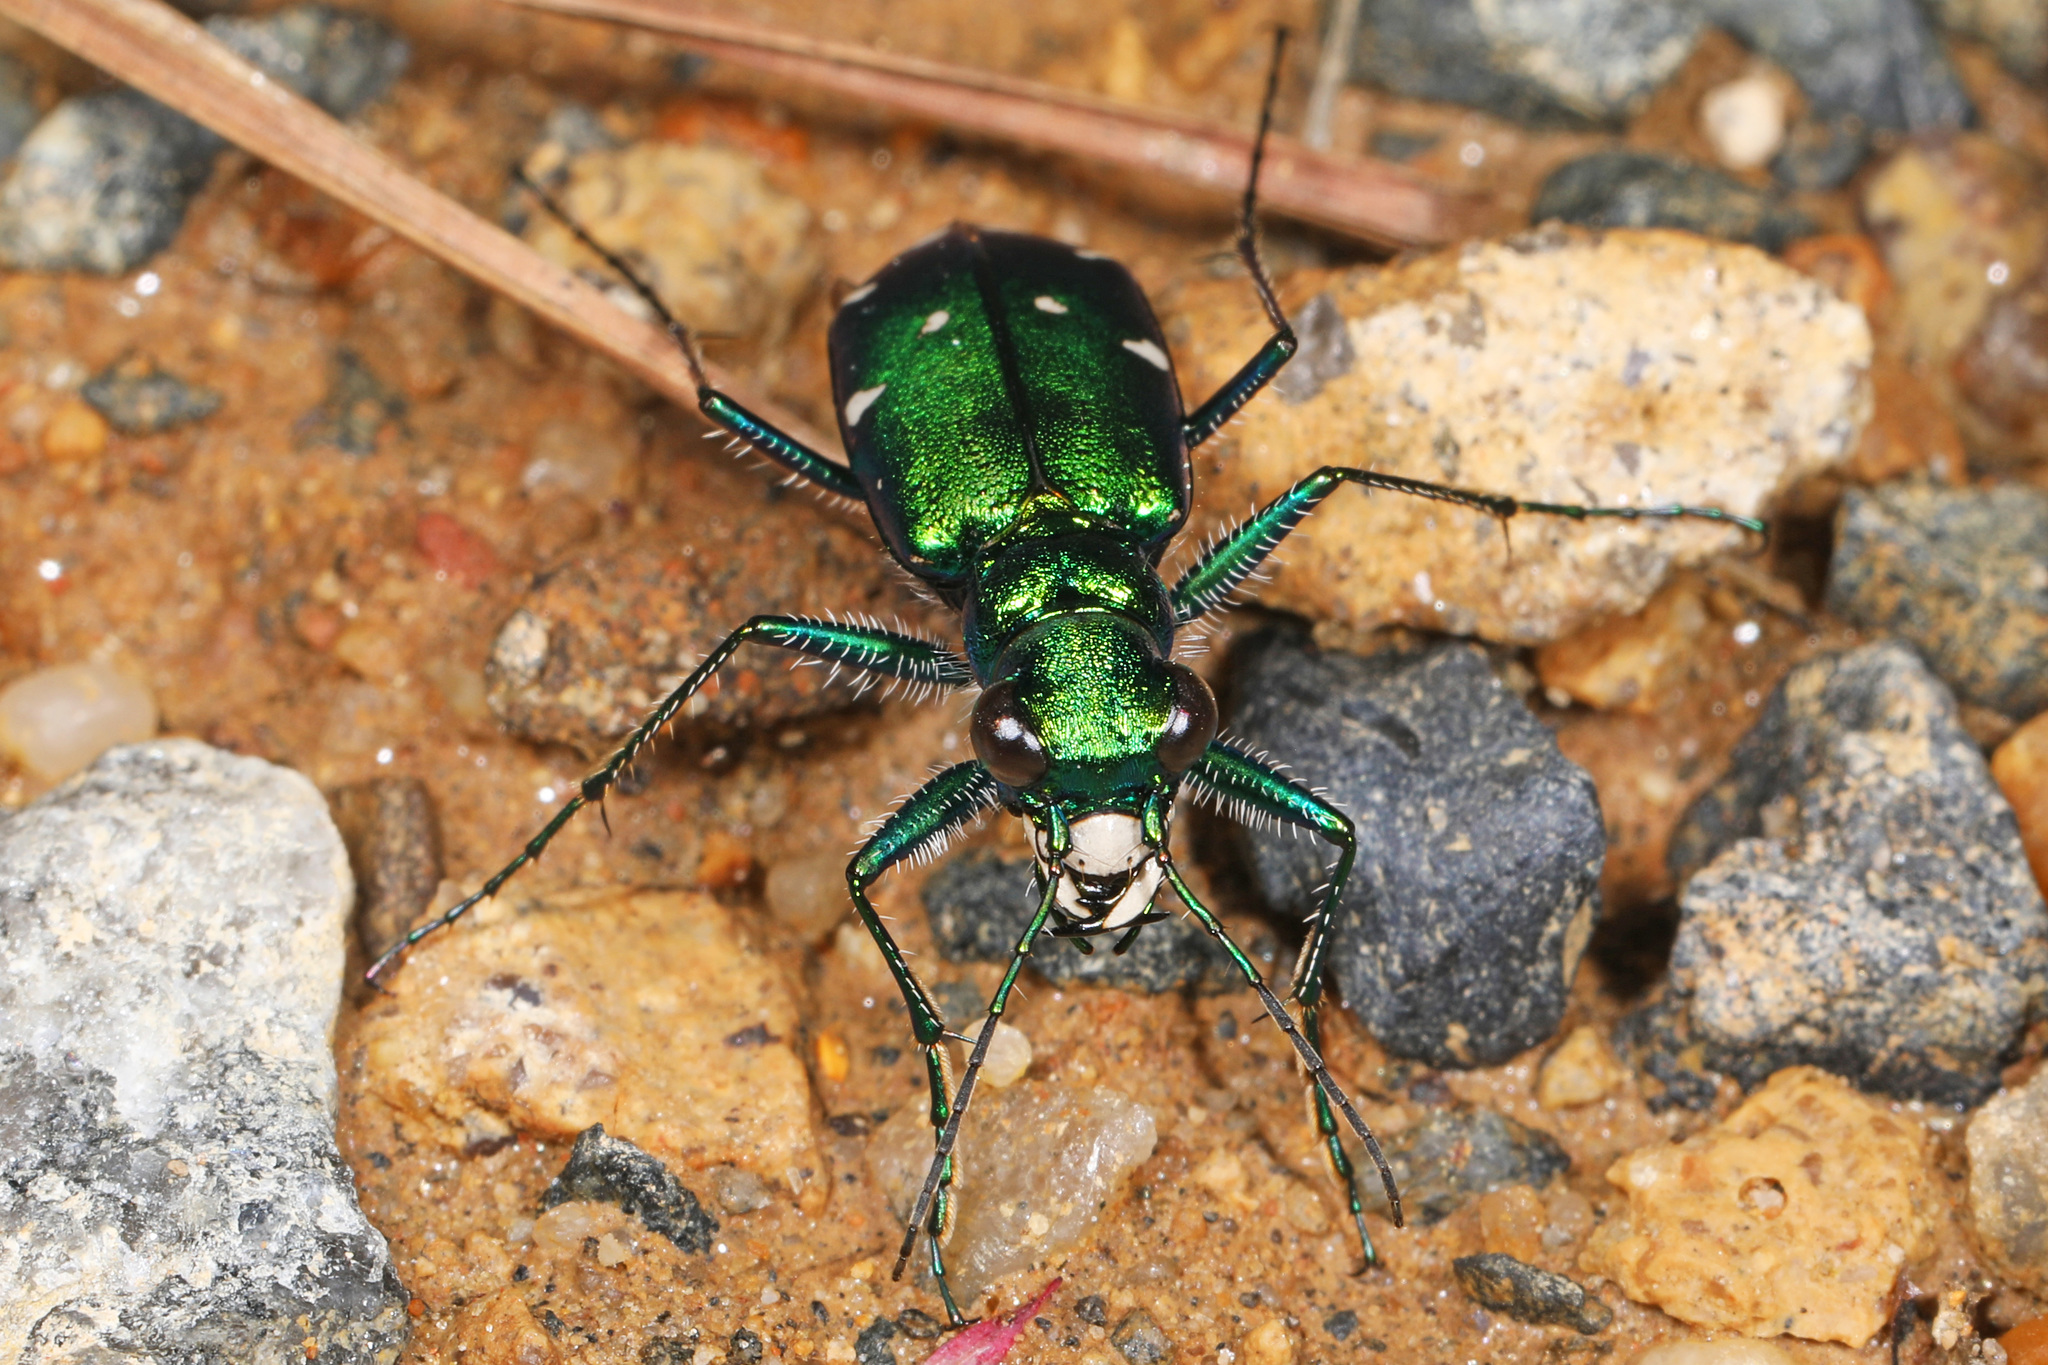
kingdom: Animalia
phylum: Arthropoda
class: Insecta
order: Coleoptera
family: Carabidae
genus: Cicindela
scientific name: Cicindela sexguttata
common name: Six-spotted tiger beetle
